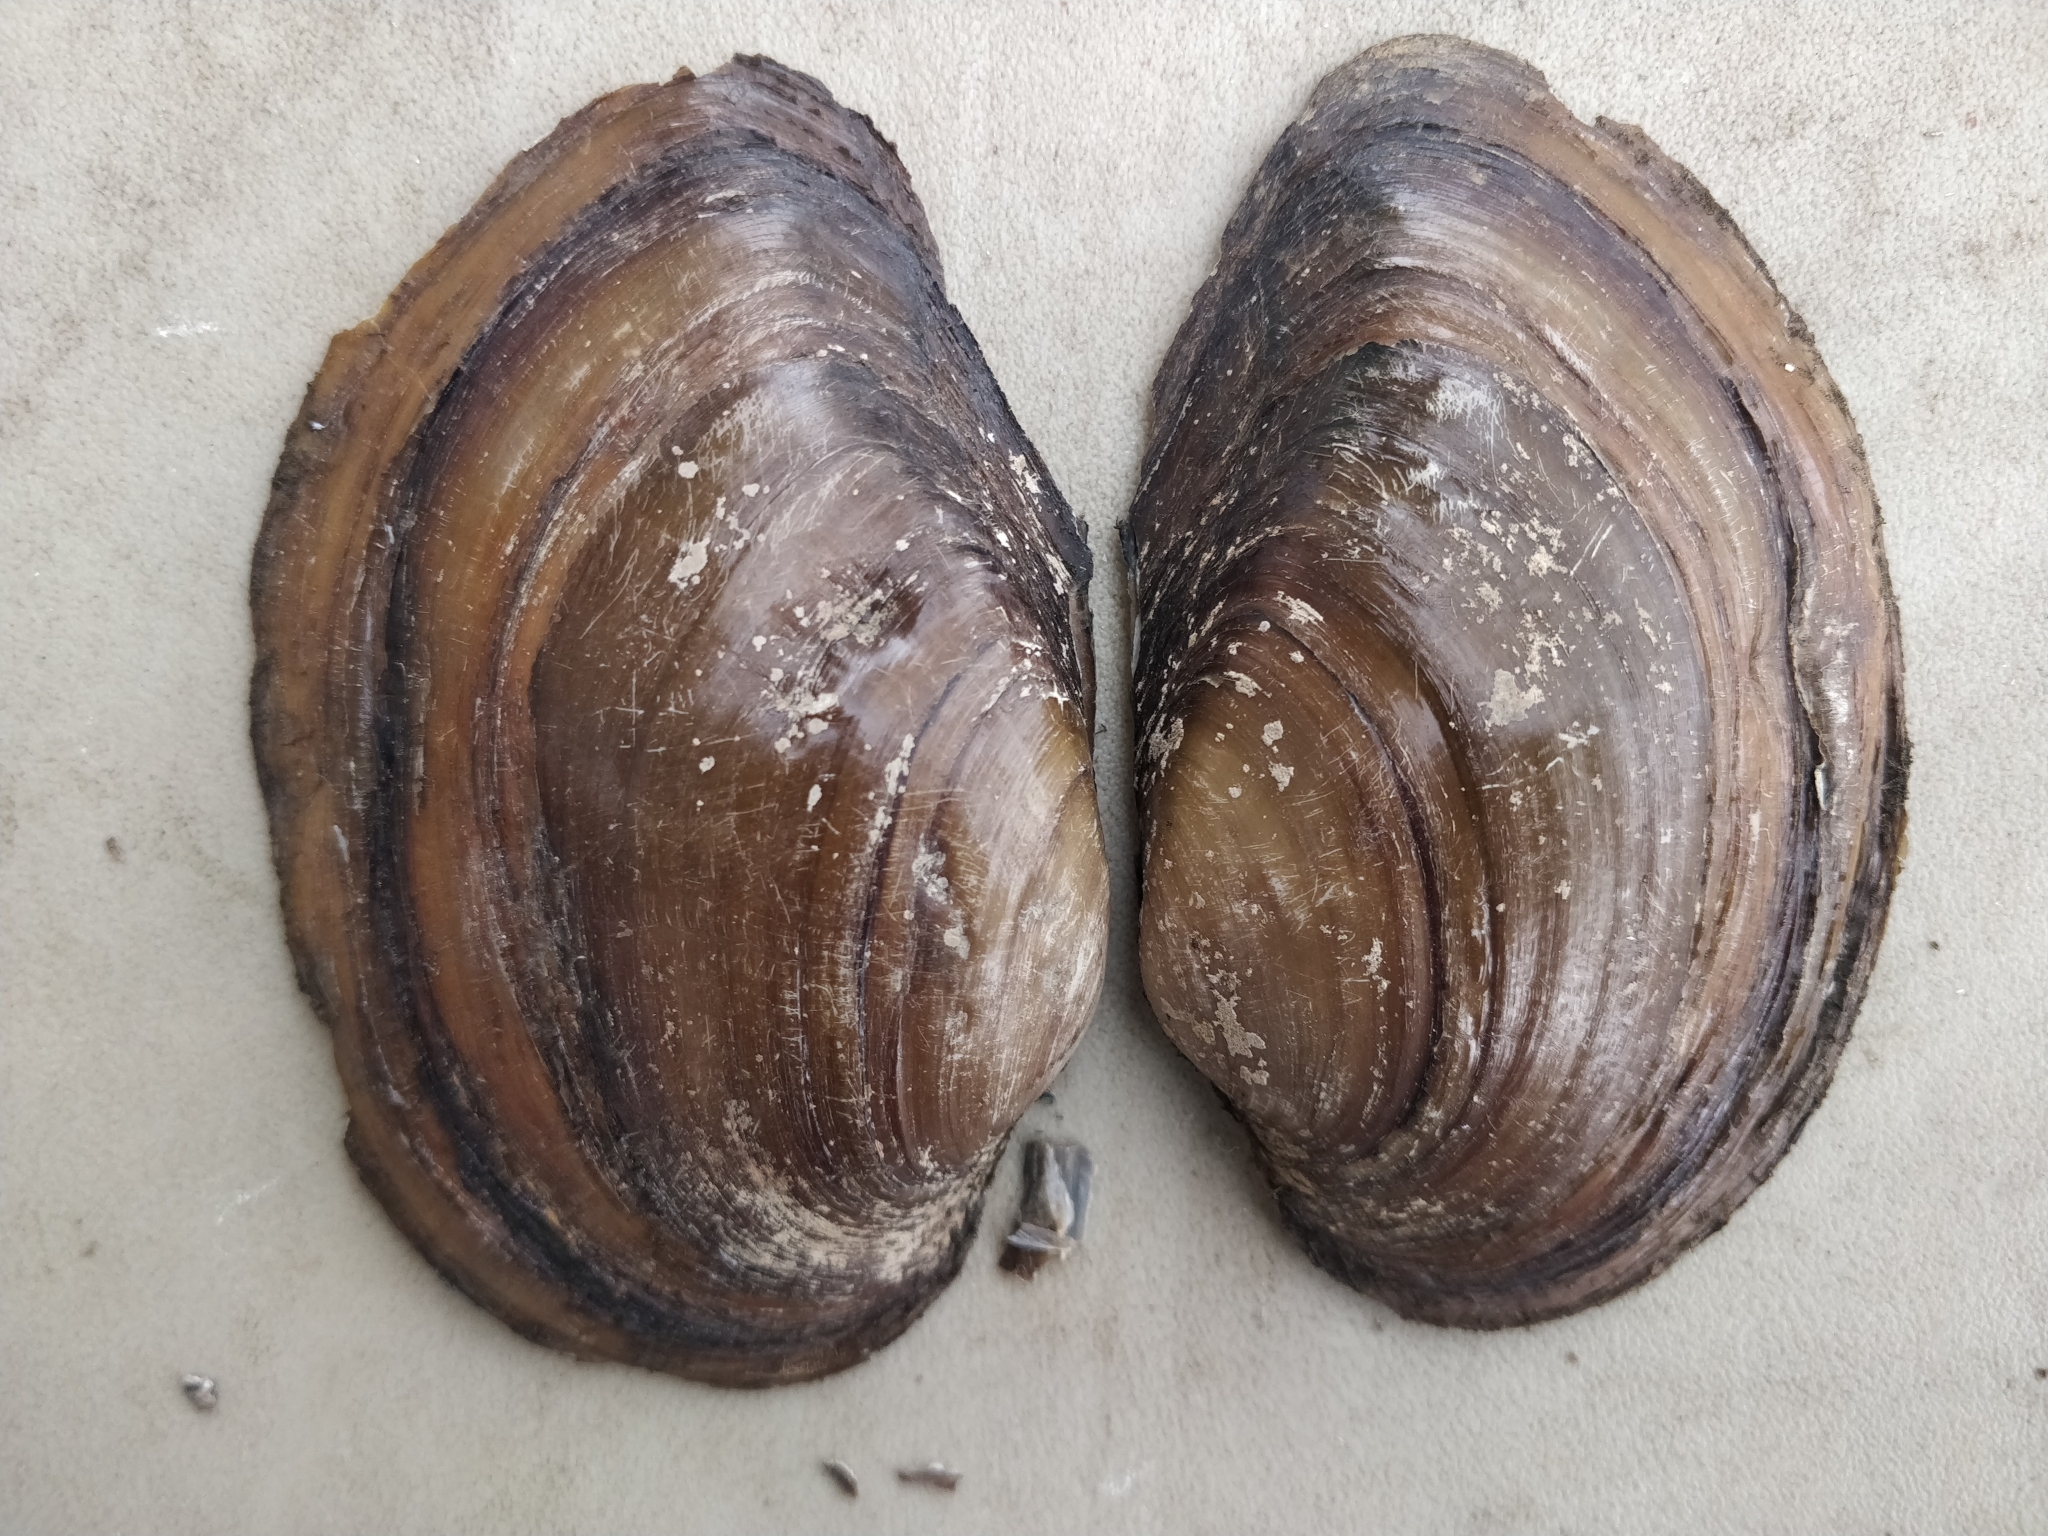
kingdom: Animalia
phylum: Mollusca
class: Bivalvia
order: Unionida
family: Unionidae
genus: Pyganodon
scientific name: Pyganodon grandis
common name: Giant floater
